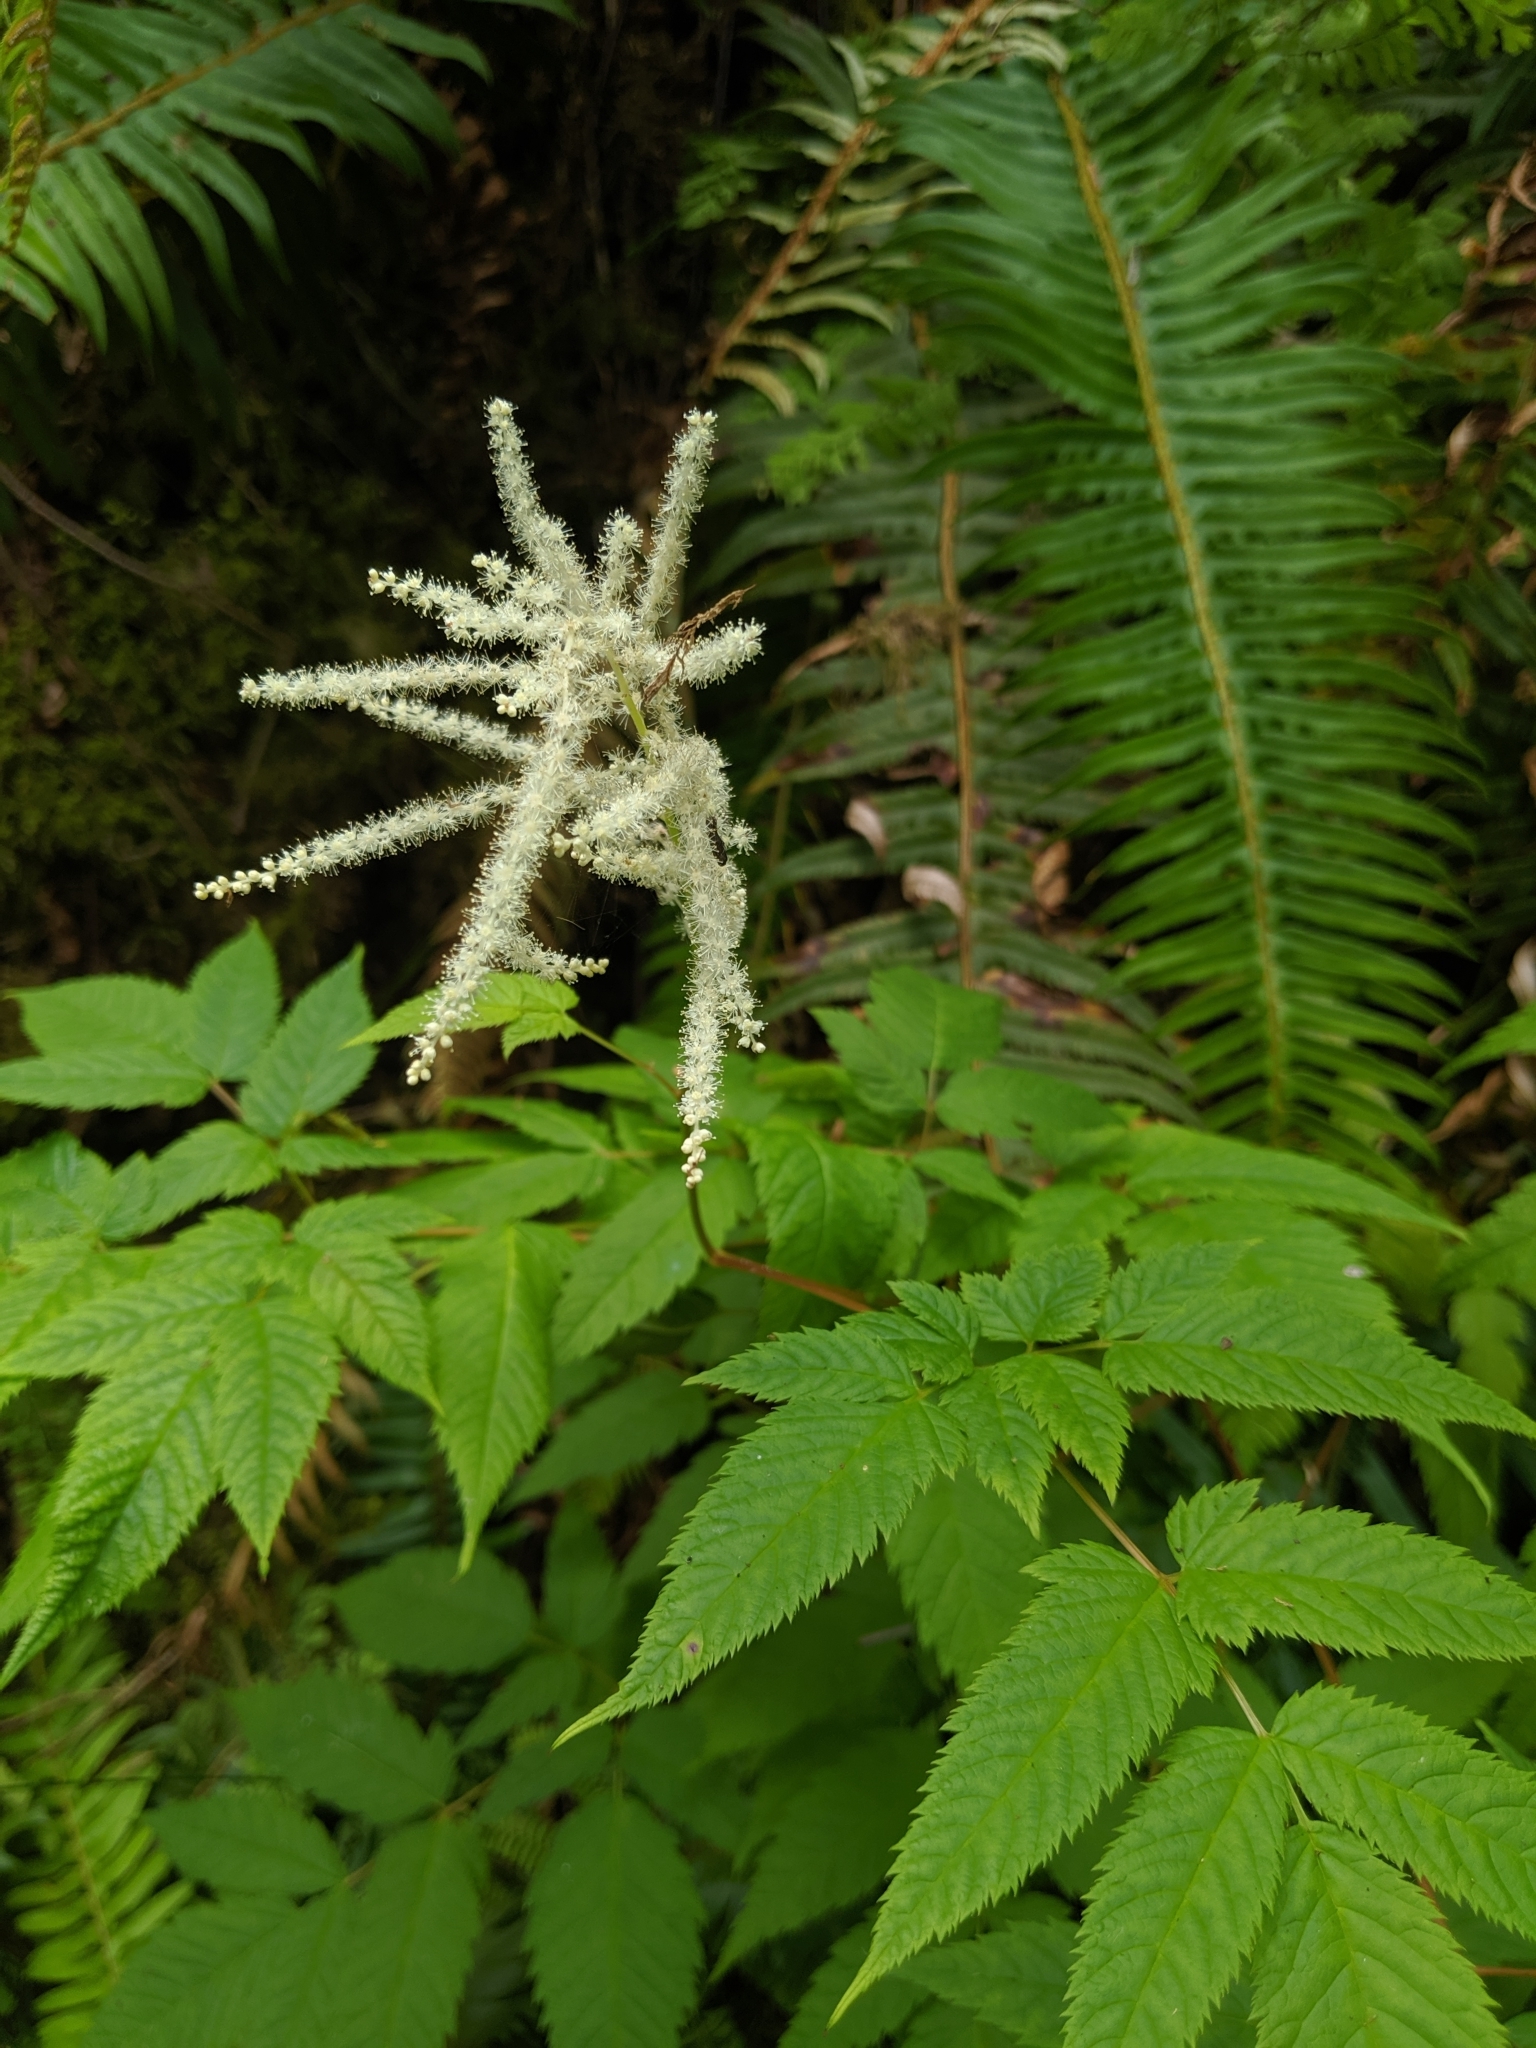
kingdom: Plantae
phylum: Tracheophyta
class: Magnoliopsida
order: Rosales
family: Rosaceae
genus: Aruncus
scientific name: Aruncus dioicus
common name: Buck's-beard
